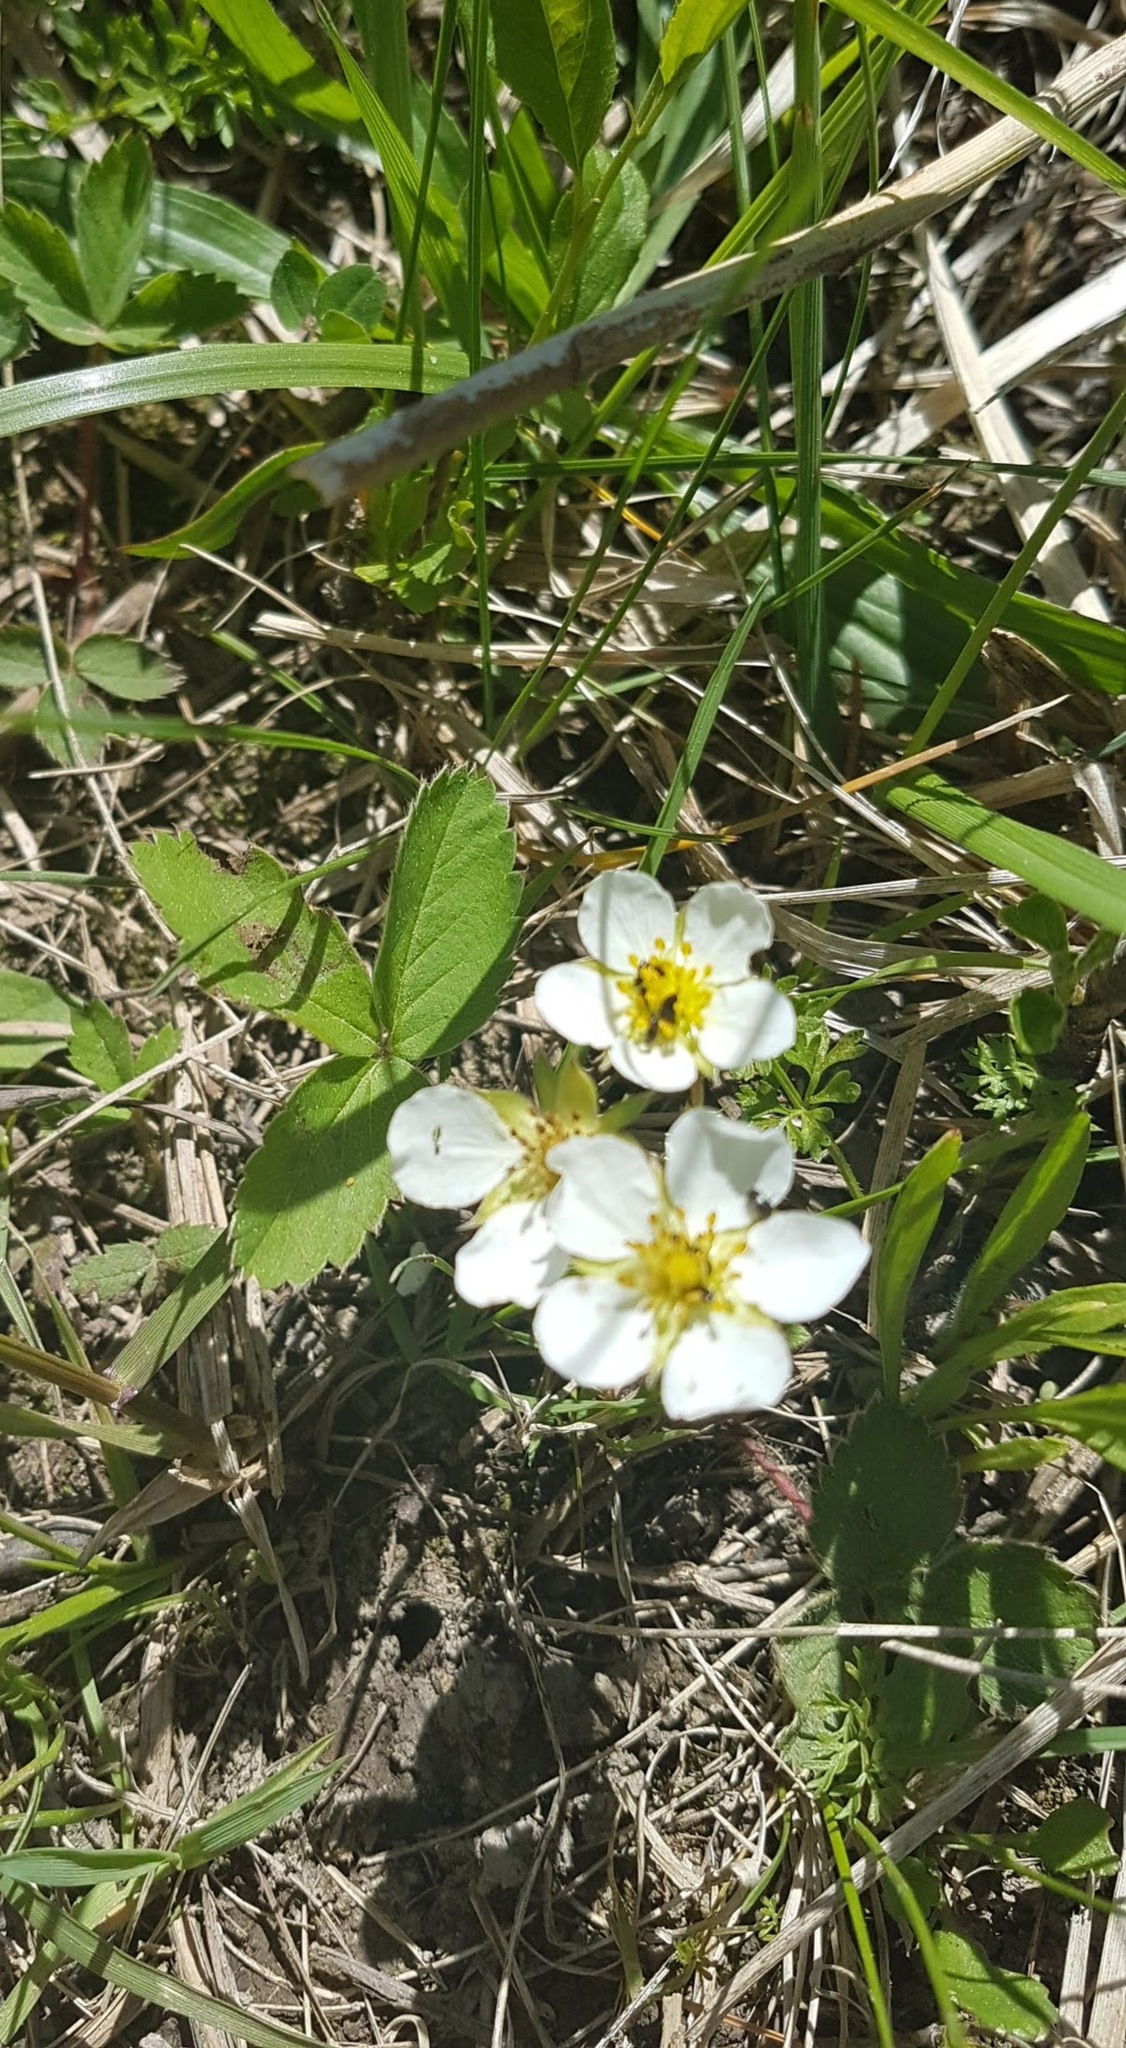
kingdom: Plantae
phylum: Tracheophyta
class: Magnoliopsida
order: Rosales
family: Rosaceae
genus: Fragaria
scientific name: Fragaria virginiana
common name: Thickleaved wild strawberry
